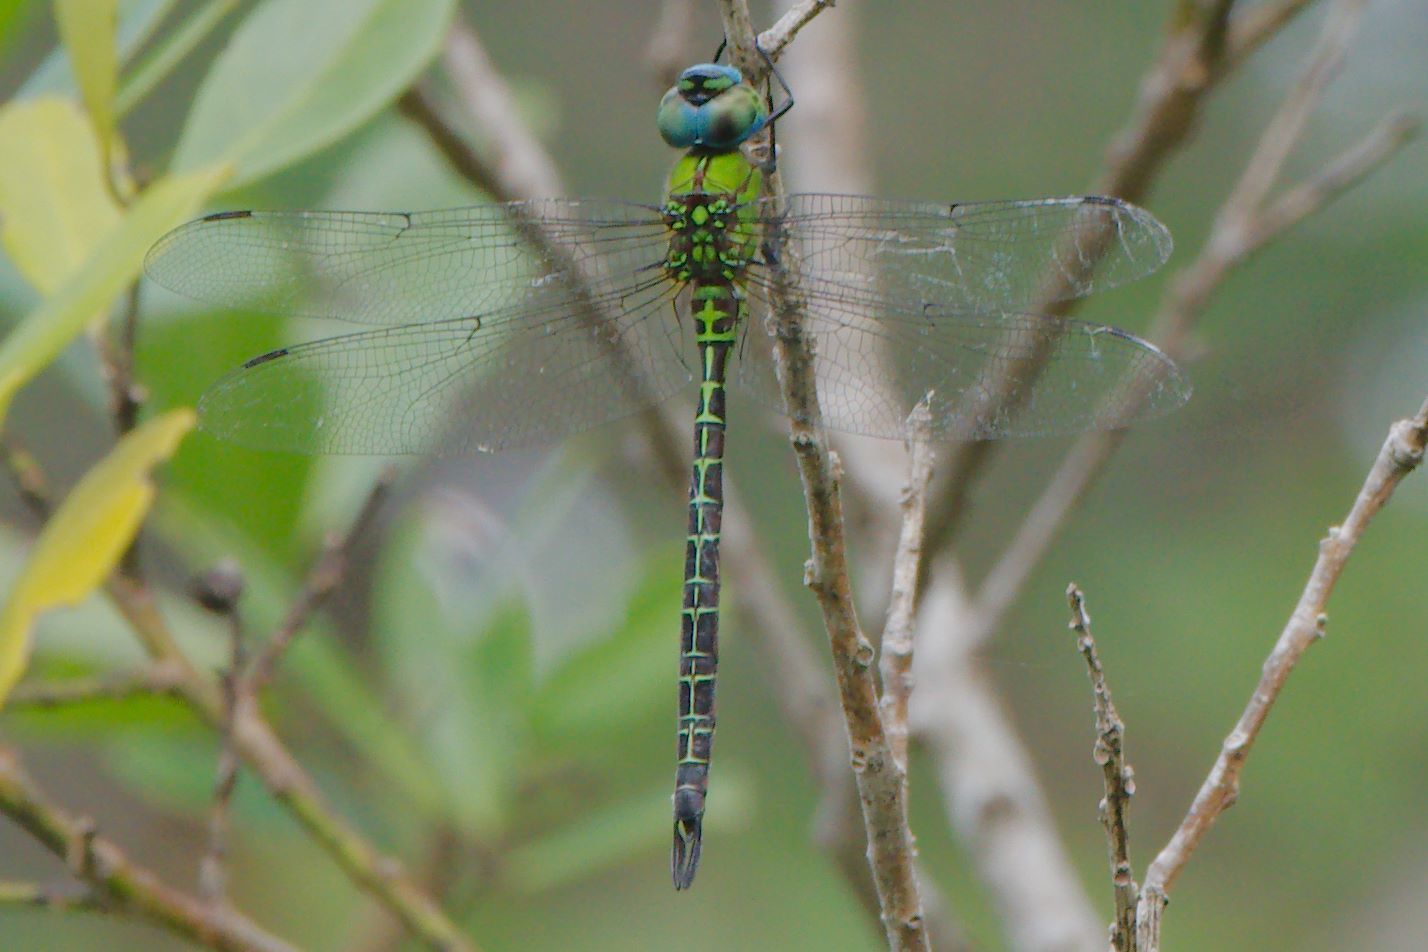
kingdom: Animalia
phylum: Arthropoda
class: Insecta
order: Odonata
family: Aeshnidae
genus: Coryphaeschna
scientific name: Coryphaeschna adnexa
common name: Blue-faced darner
